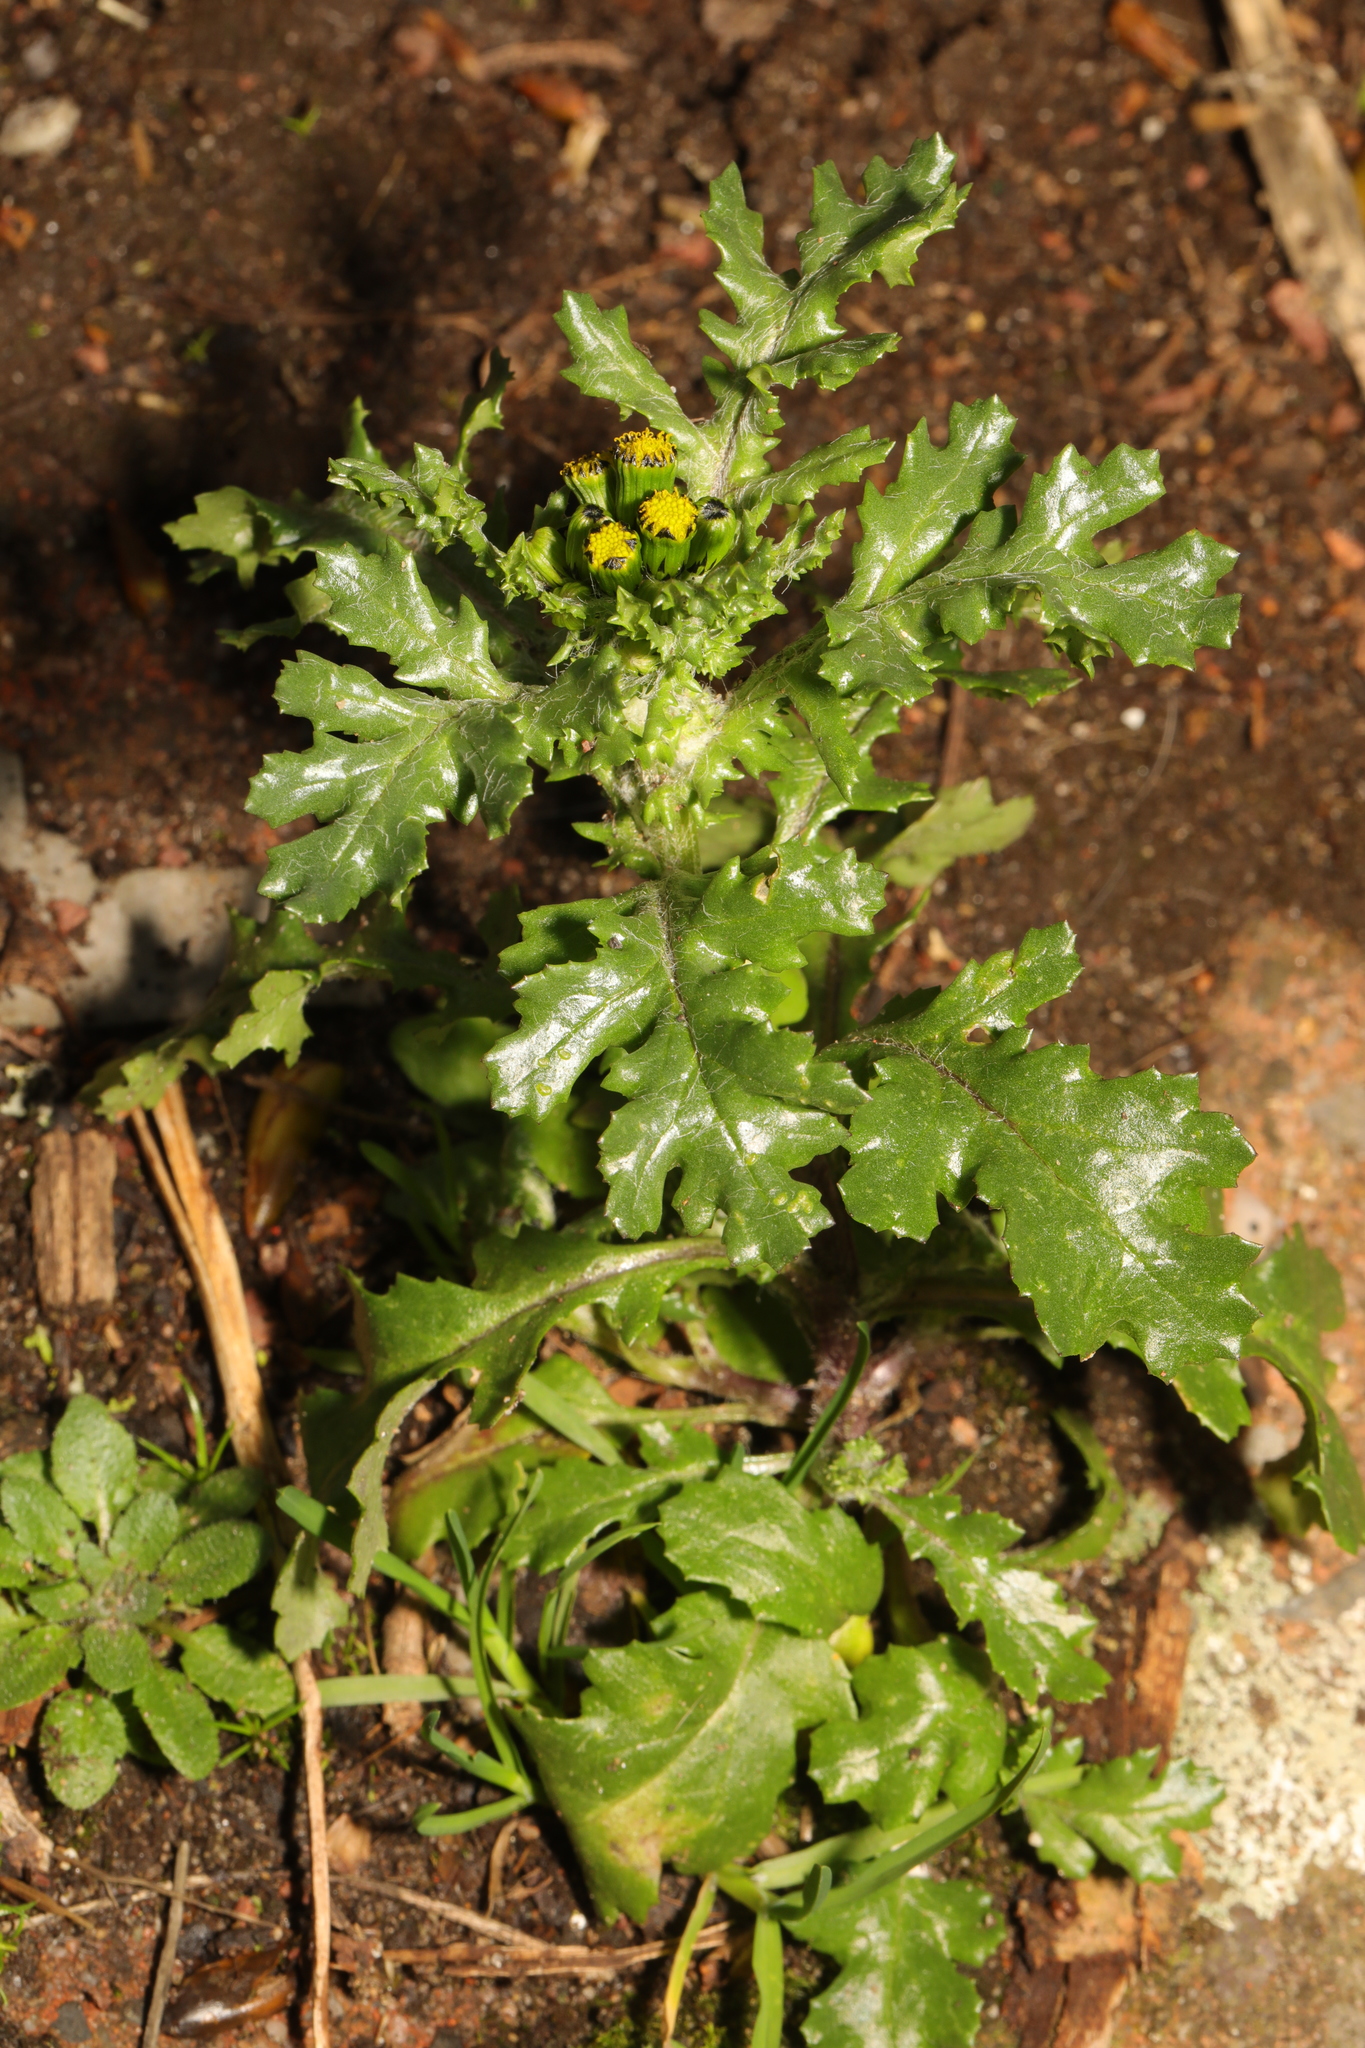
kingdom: Plantae
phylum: Tracheophyta
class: Magnoliopsida
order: Asterales
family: Asteraceae
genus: Senecio
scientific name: Senecio vulgaris
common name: Old-man-in-the-spring
